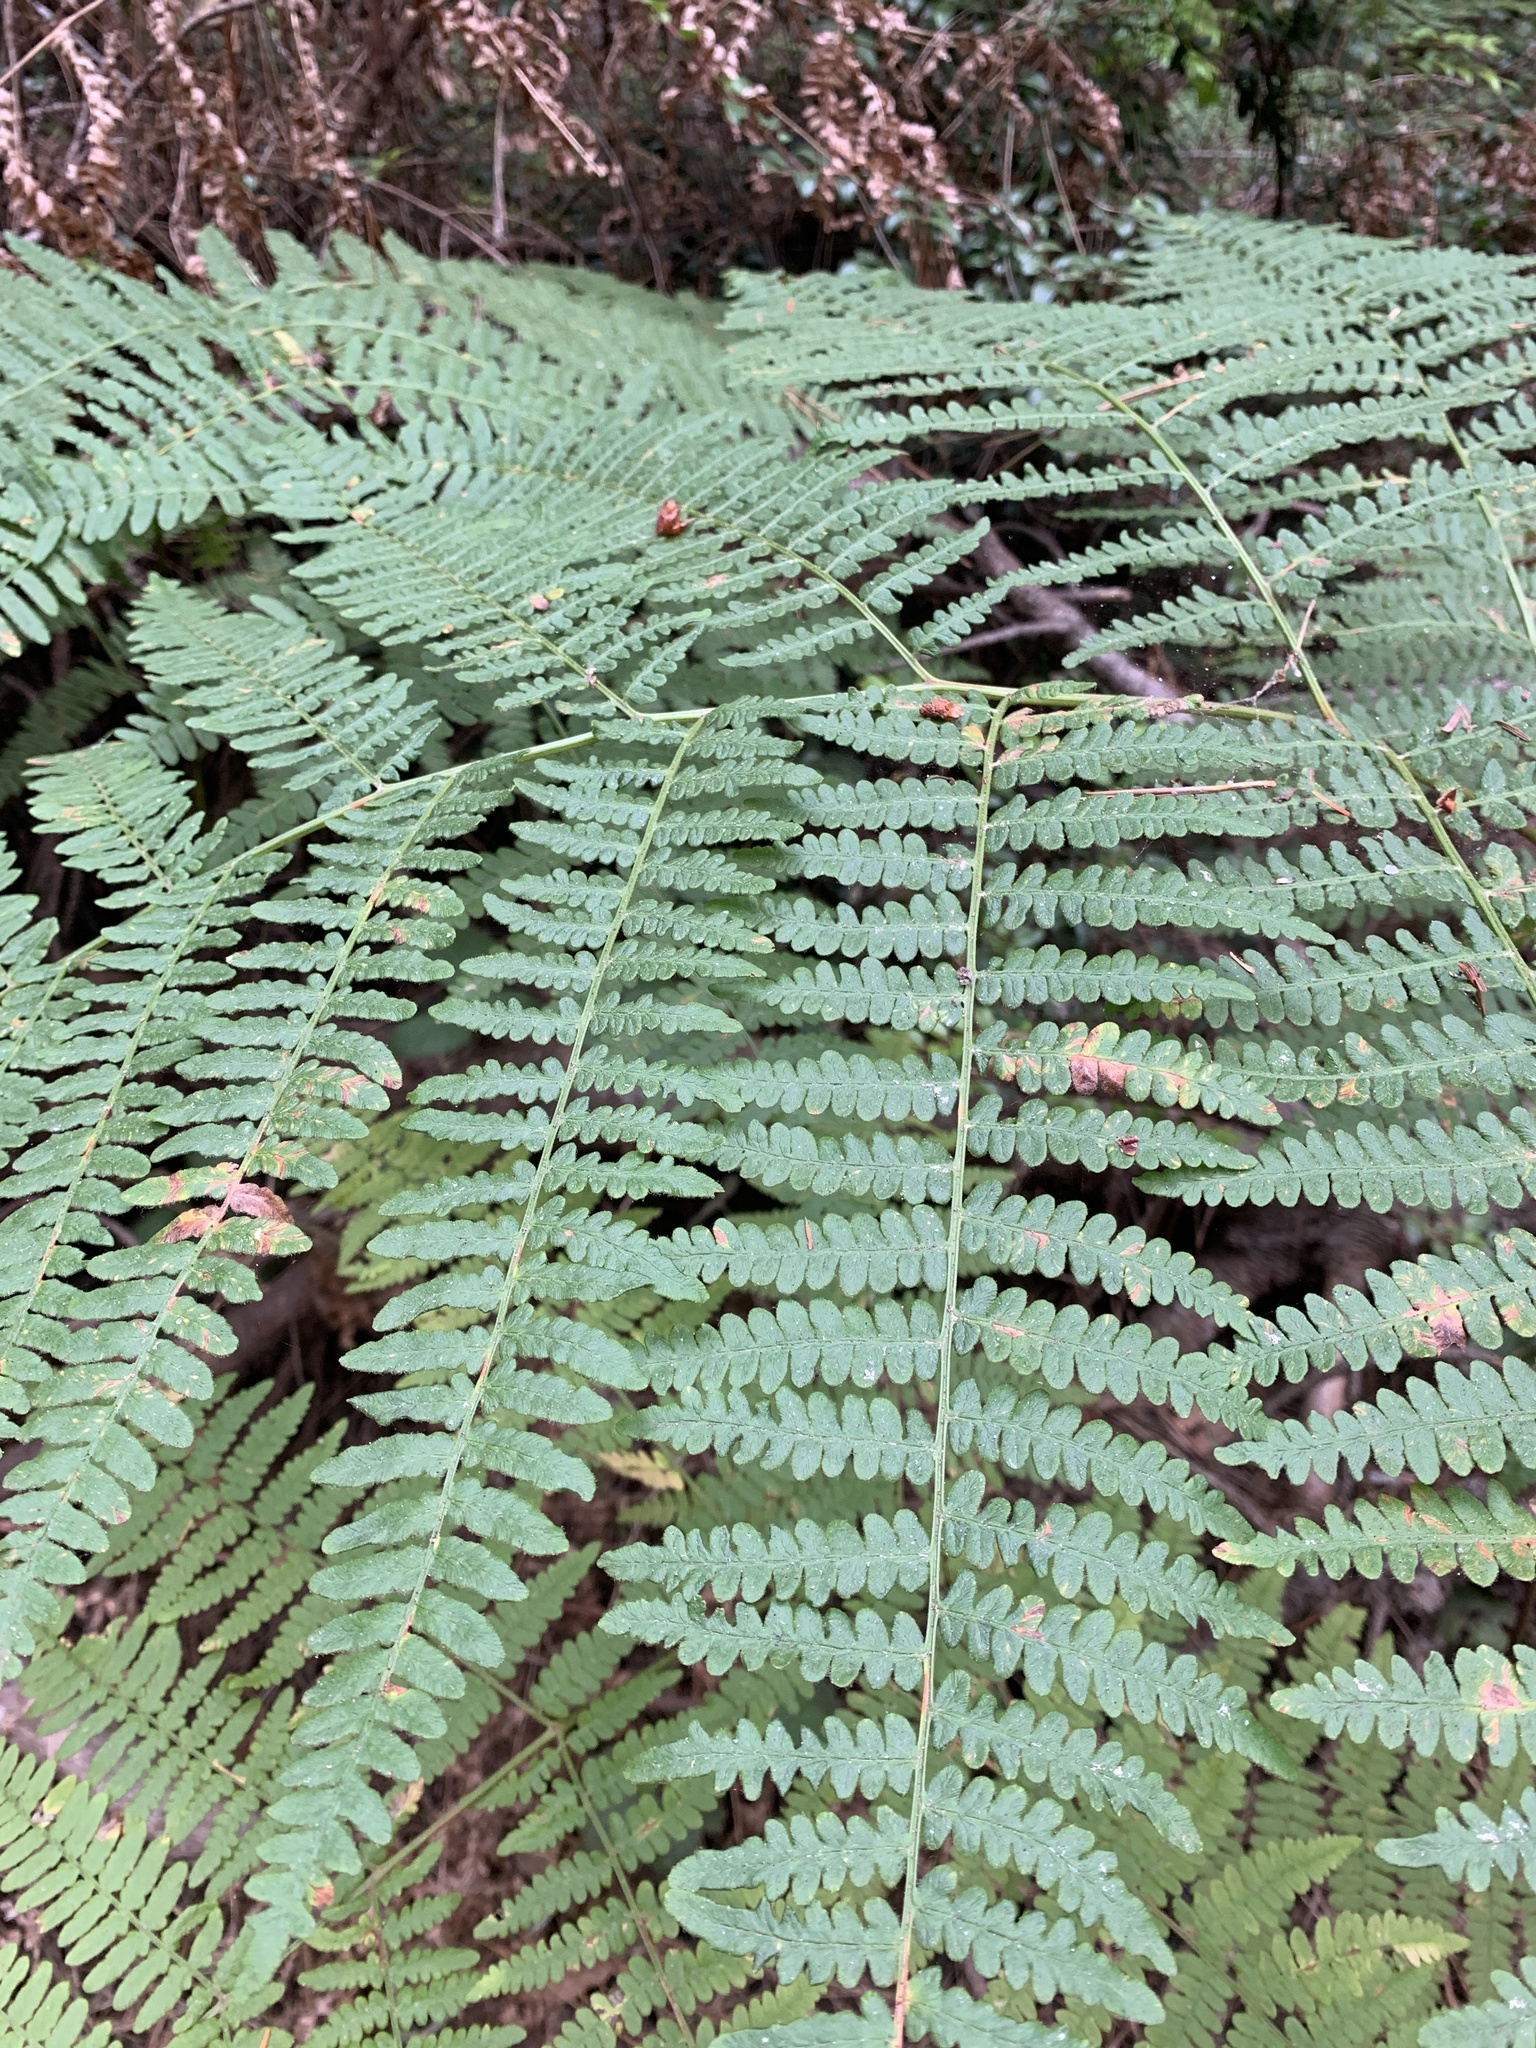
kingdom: Plantae
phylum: Tracheophyta
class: Polypodiopsida
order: Polypodiales
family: Dennstaedtiaceae
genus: Pteridium
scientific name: Pteridium aquilinum
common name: Bracken
